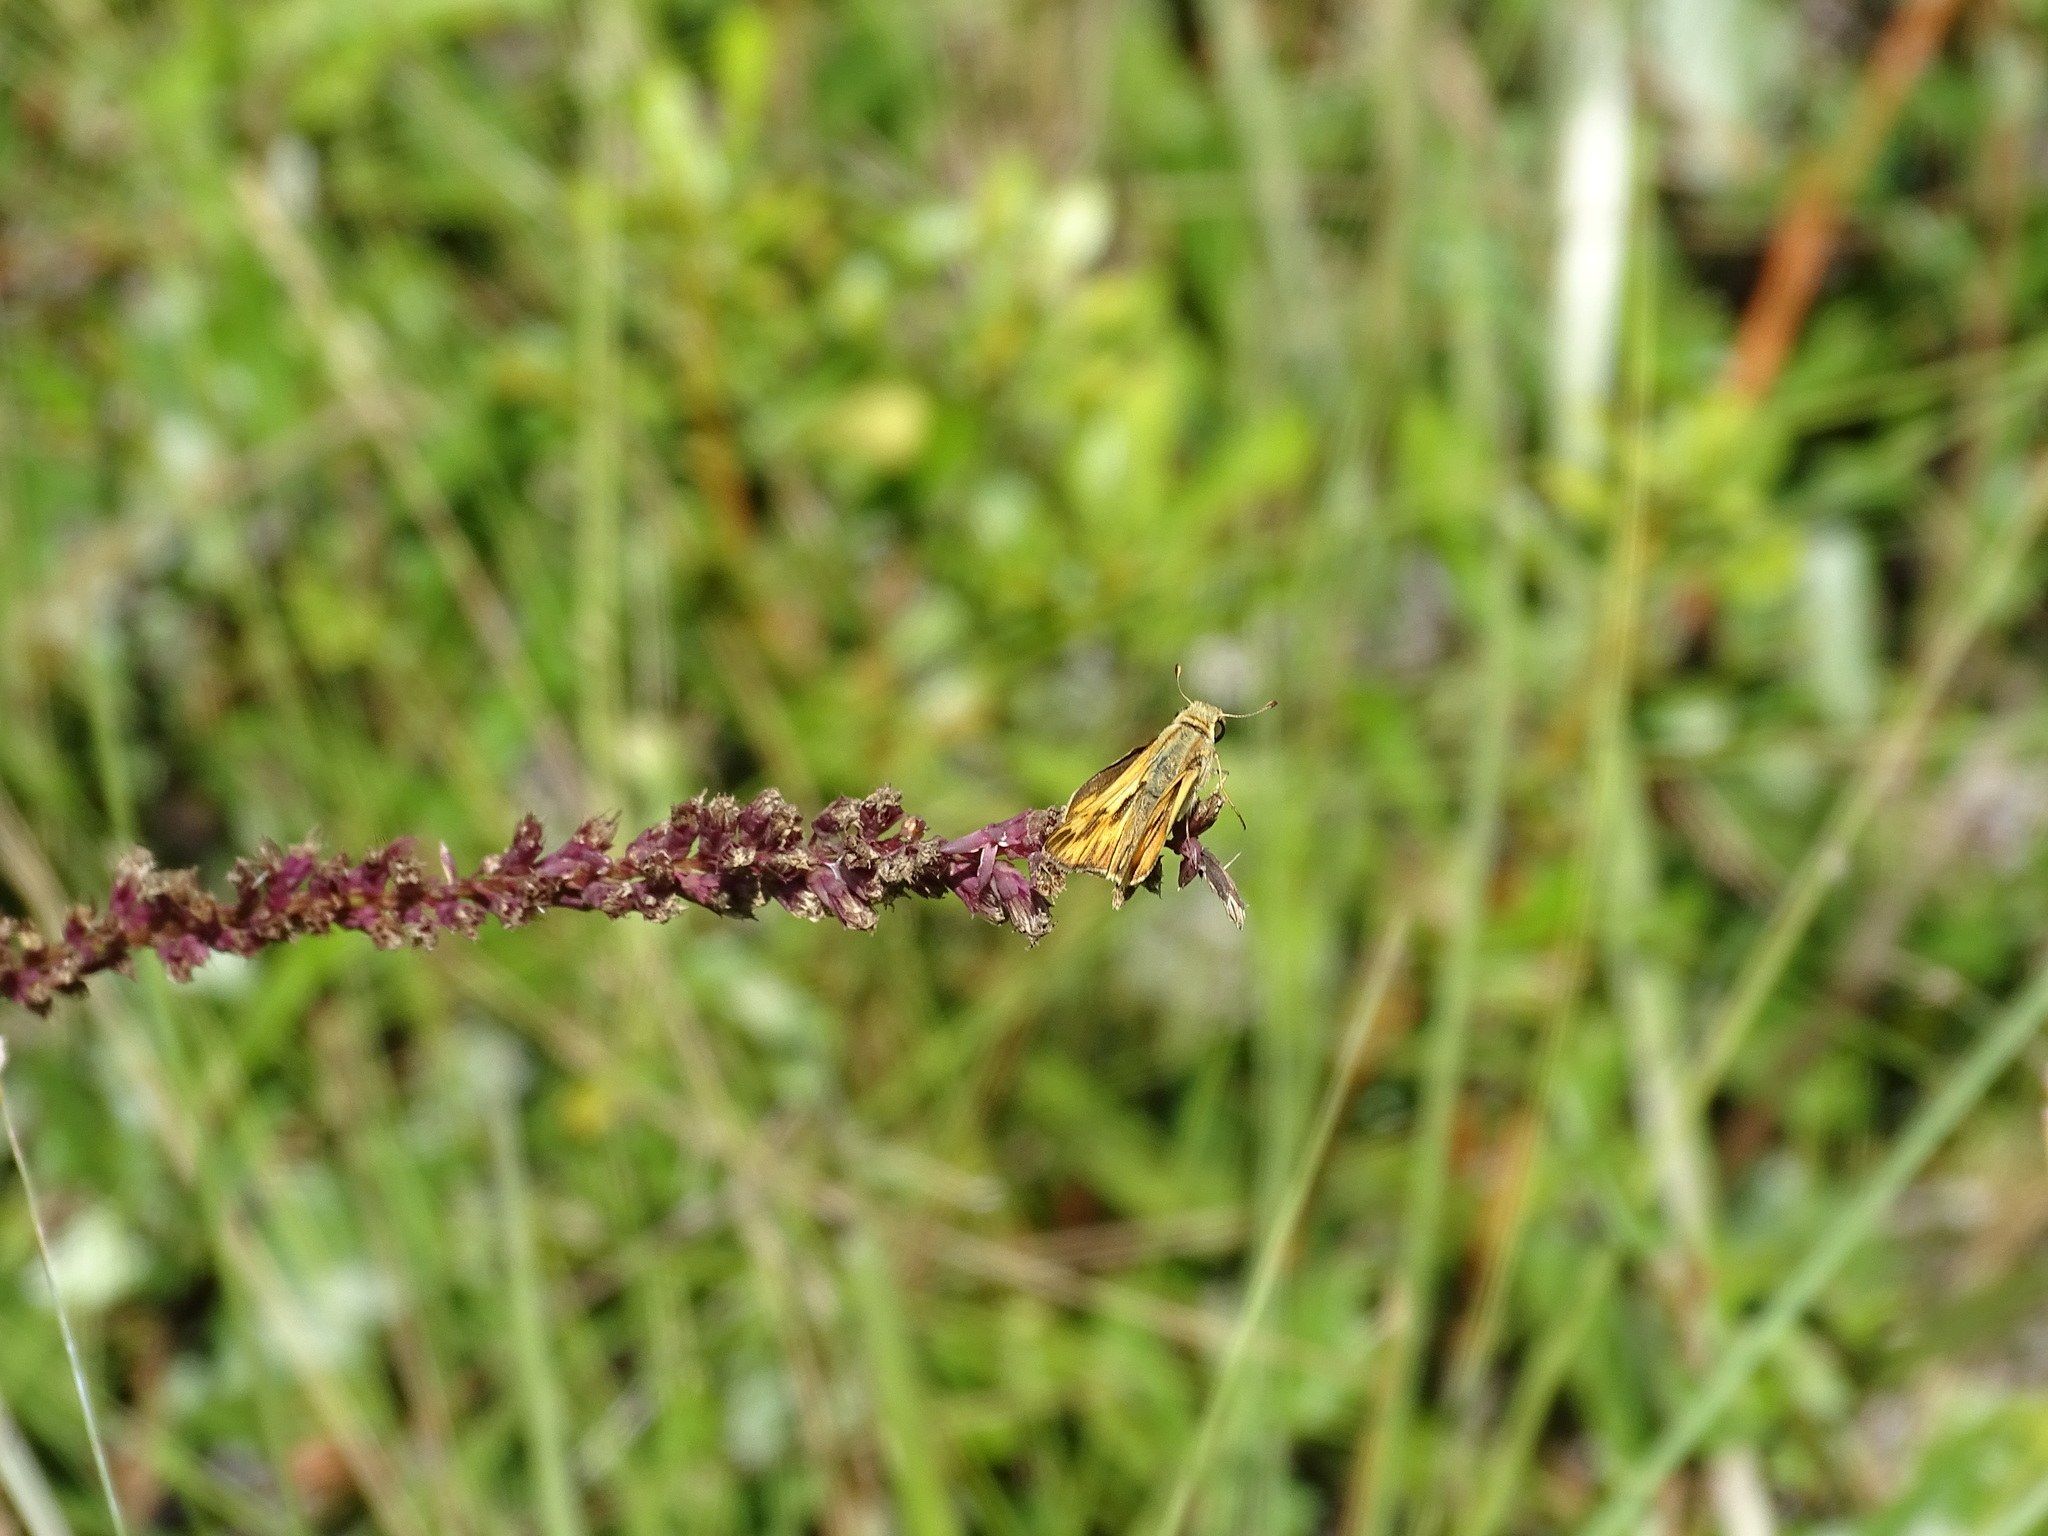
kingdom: Animalia
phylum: Arthropoda
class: Insecta
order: Lepidoptera
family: Hesperiidae
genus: Hylephila
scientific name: Hylephila phyleus
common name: Fiery skipper
